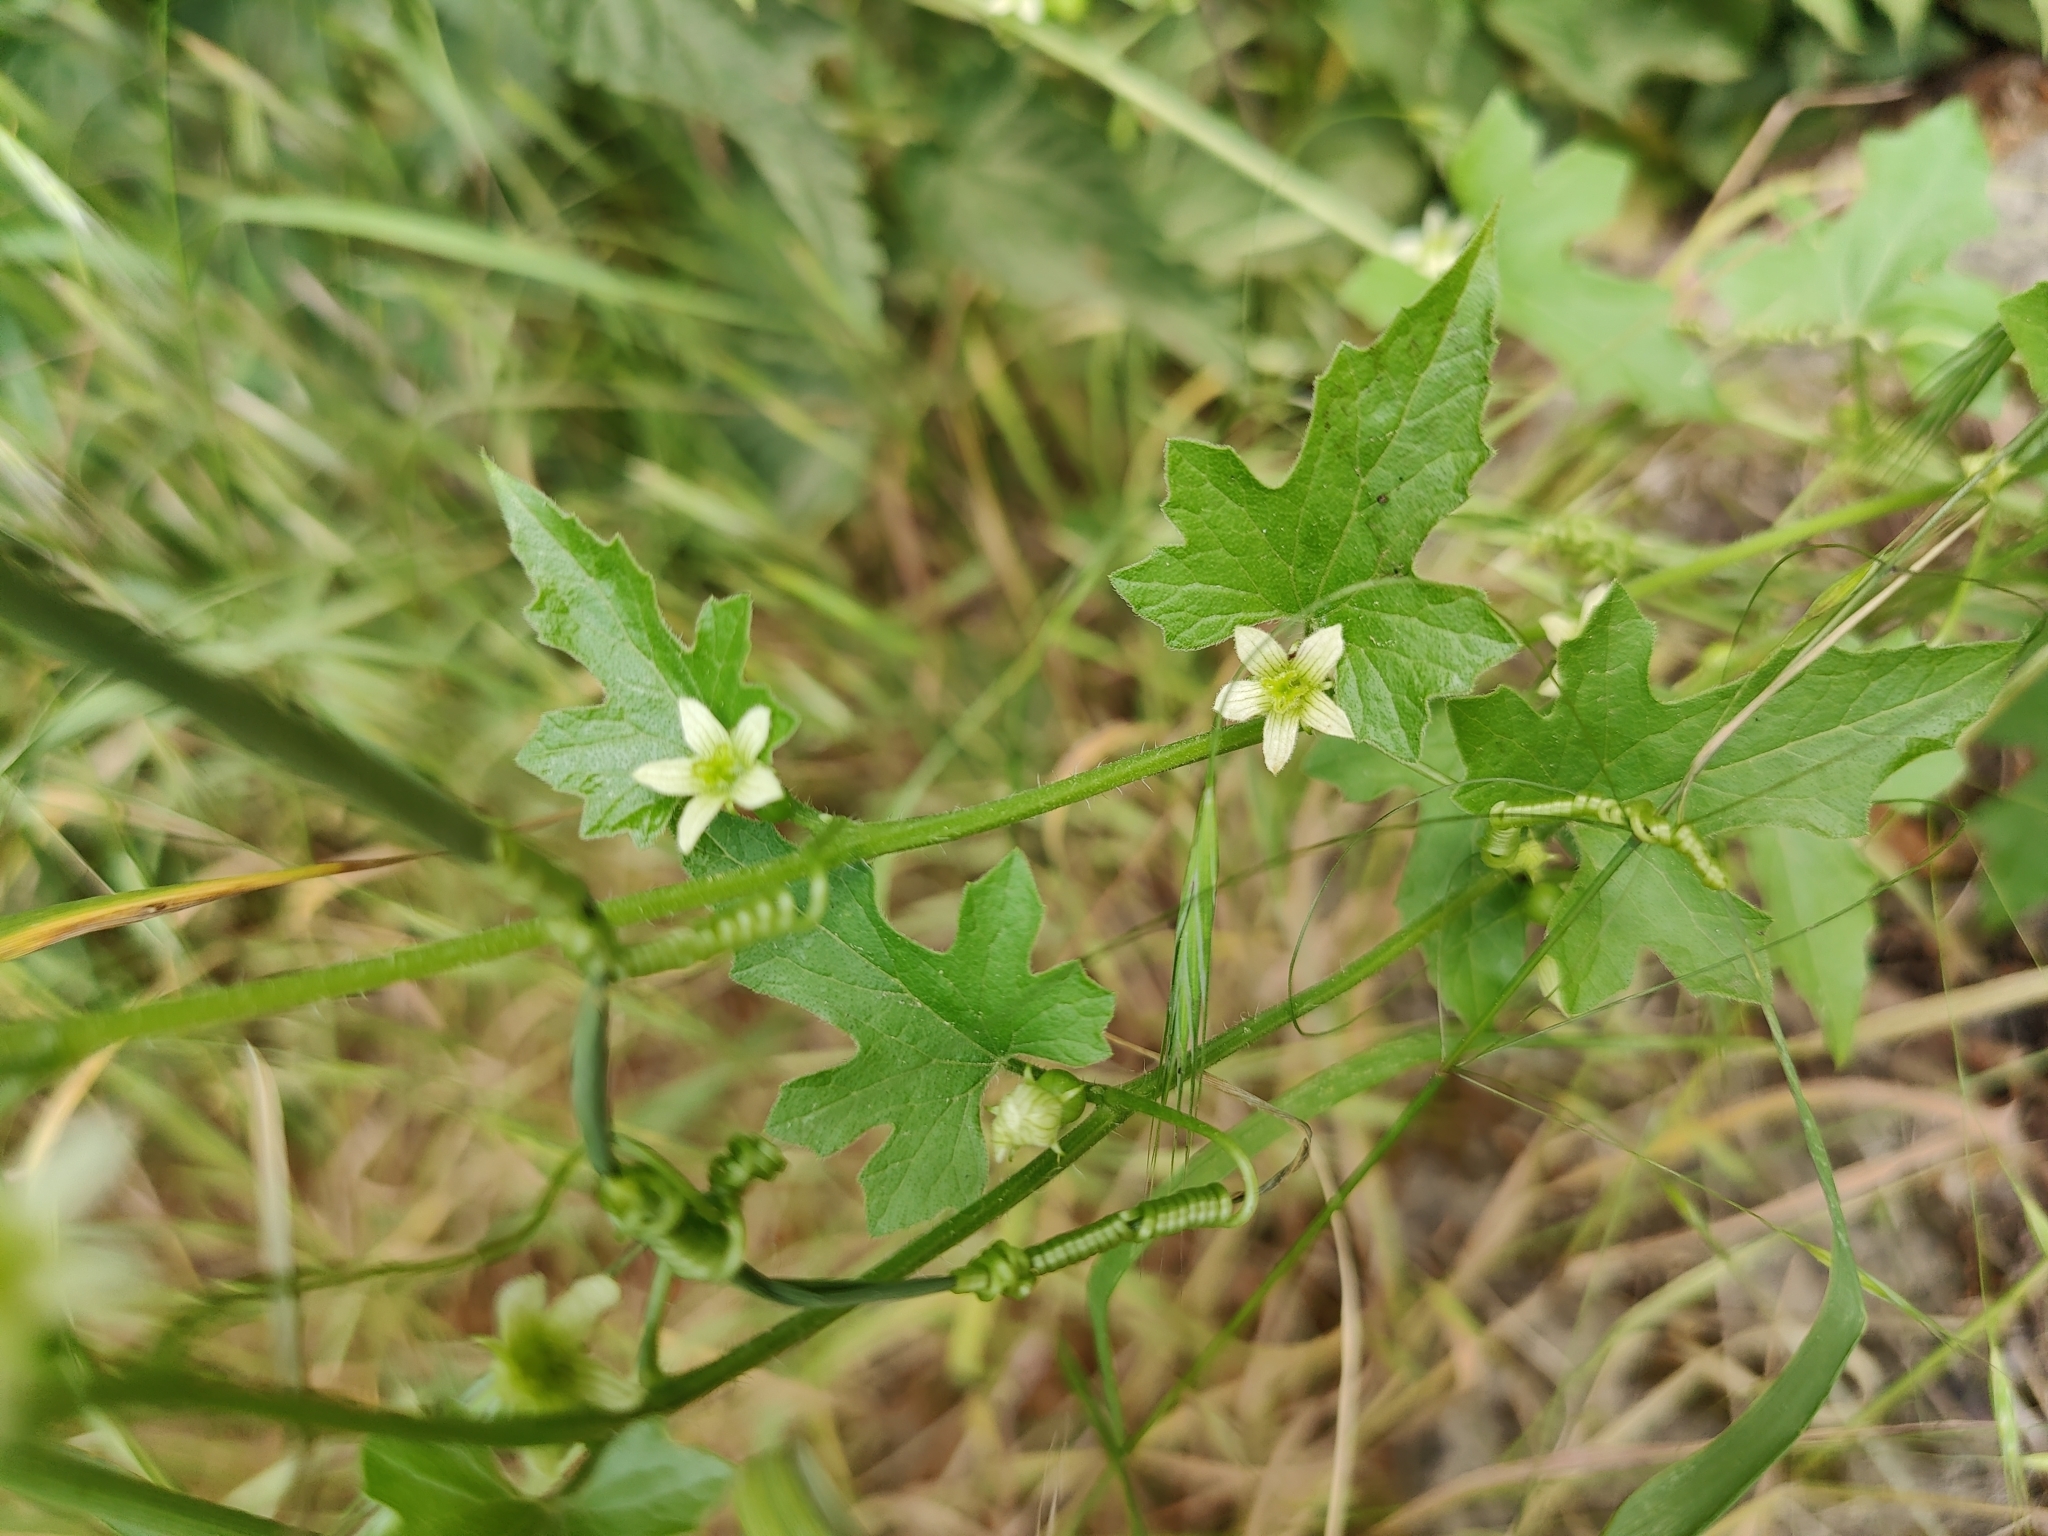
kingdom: Plantae
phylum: Tracheophyta
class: Magnoliopsida
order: Cucurbitales
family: Cucurbitaceae
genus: Bryonia
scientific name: Bryonia cretica
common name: Cretan bryony
